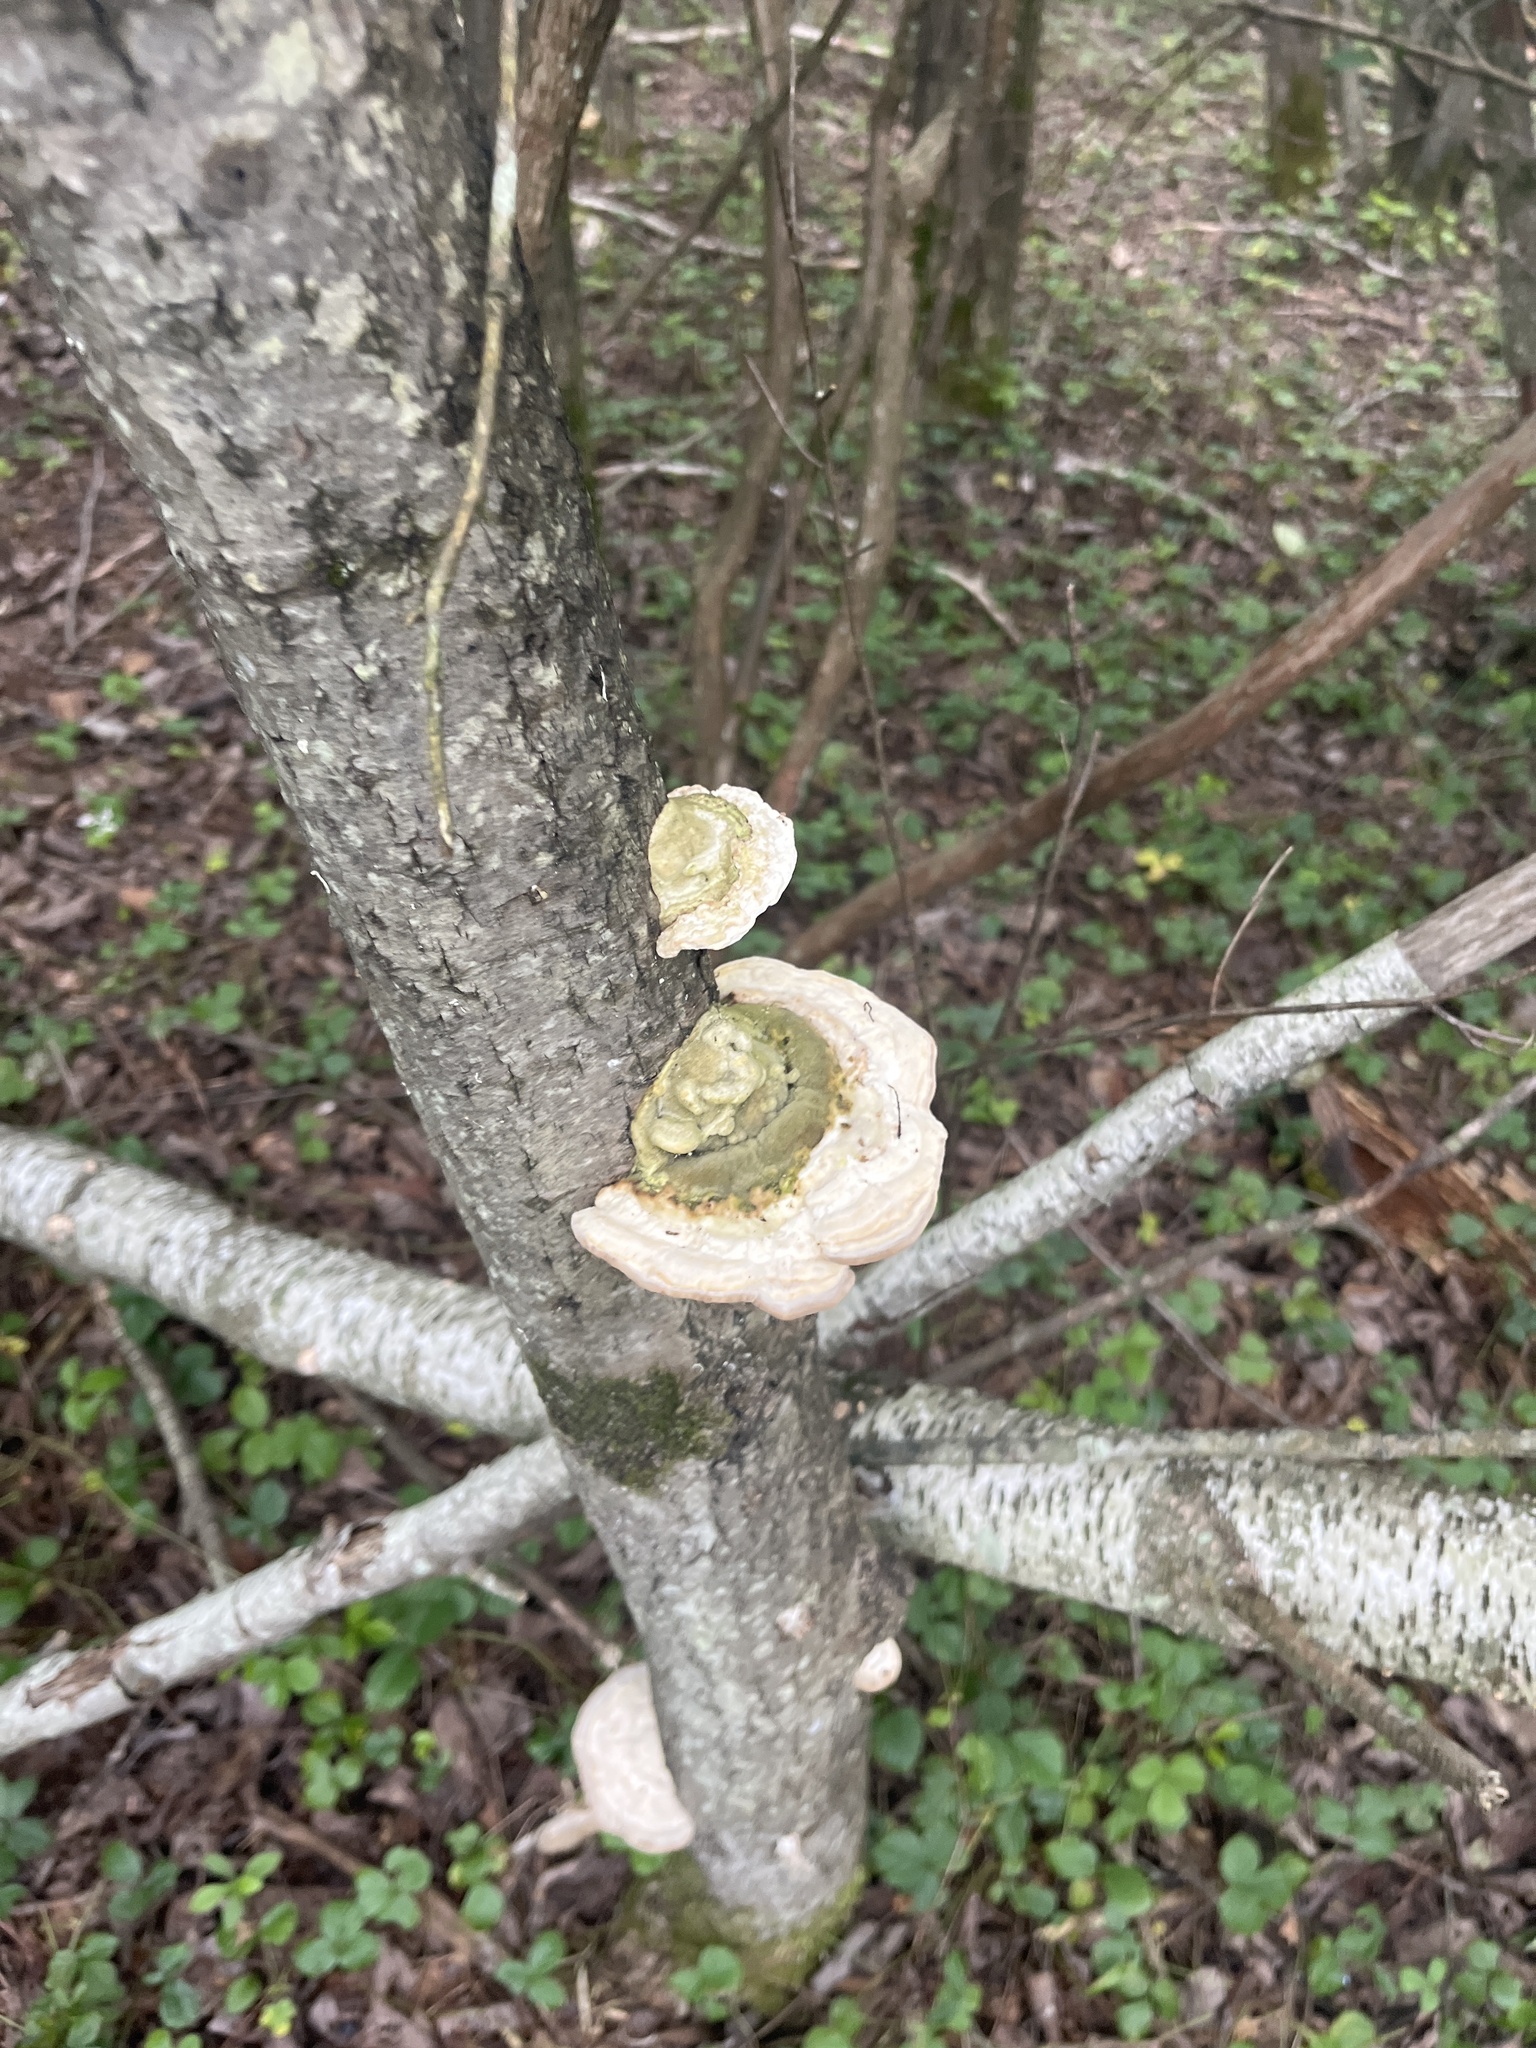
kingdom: Fungi
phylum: Basidiomycota
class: Agaricomycetes
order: Polyporales
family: Polyporaceae
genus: Trametes
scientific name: Trametes gibbosa
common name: Lumpy bracket
